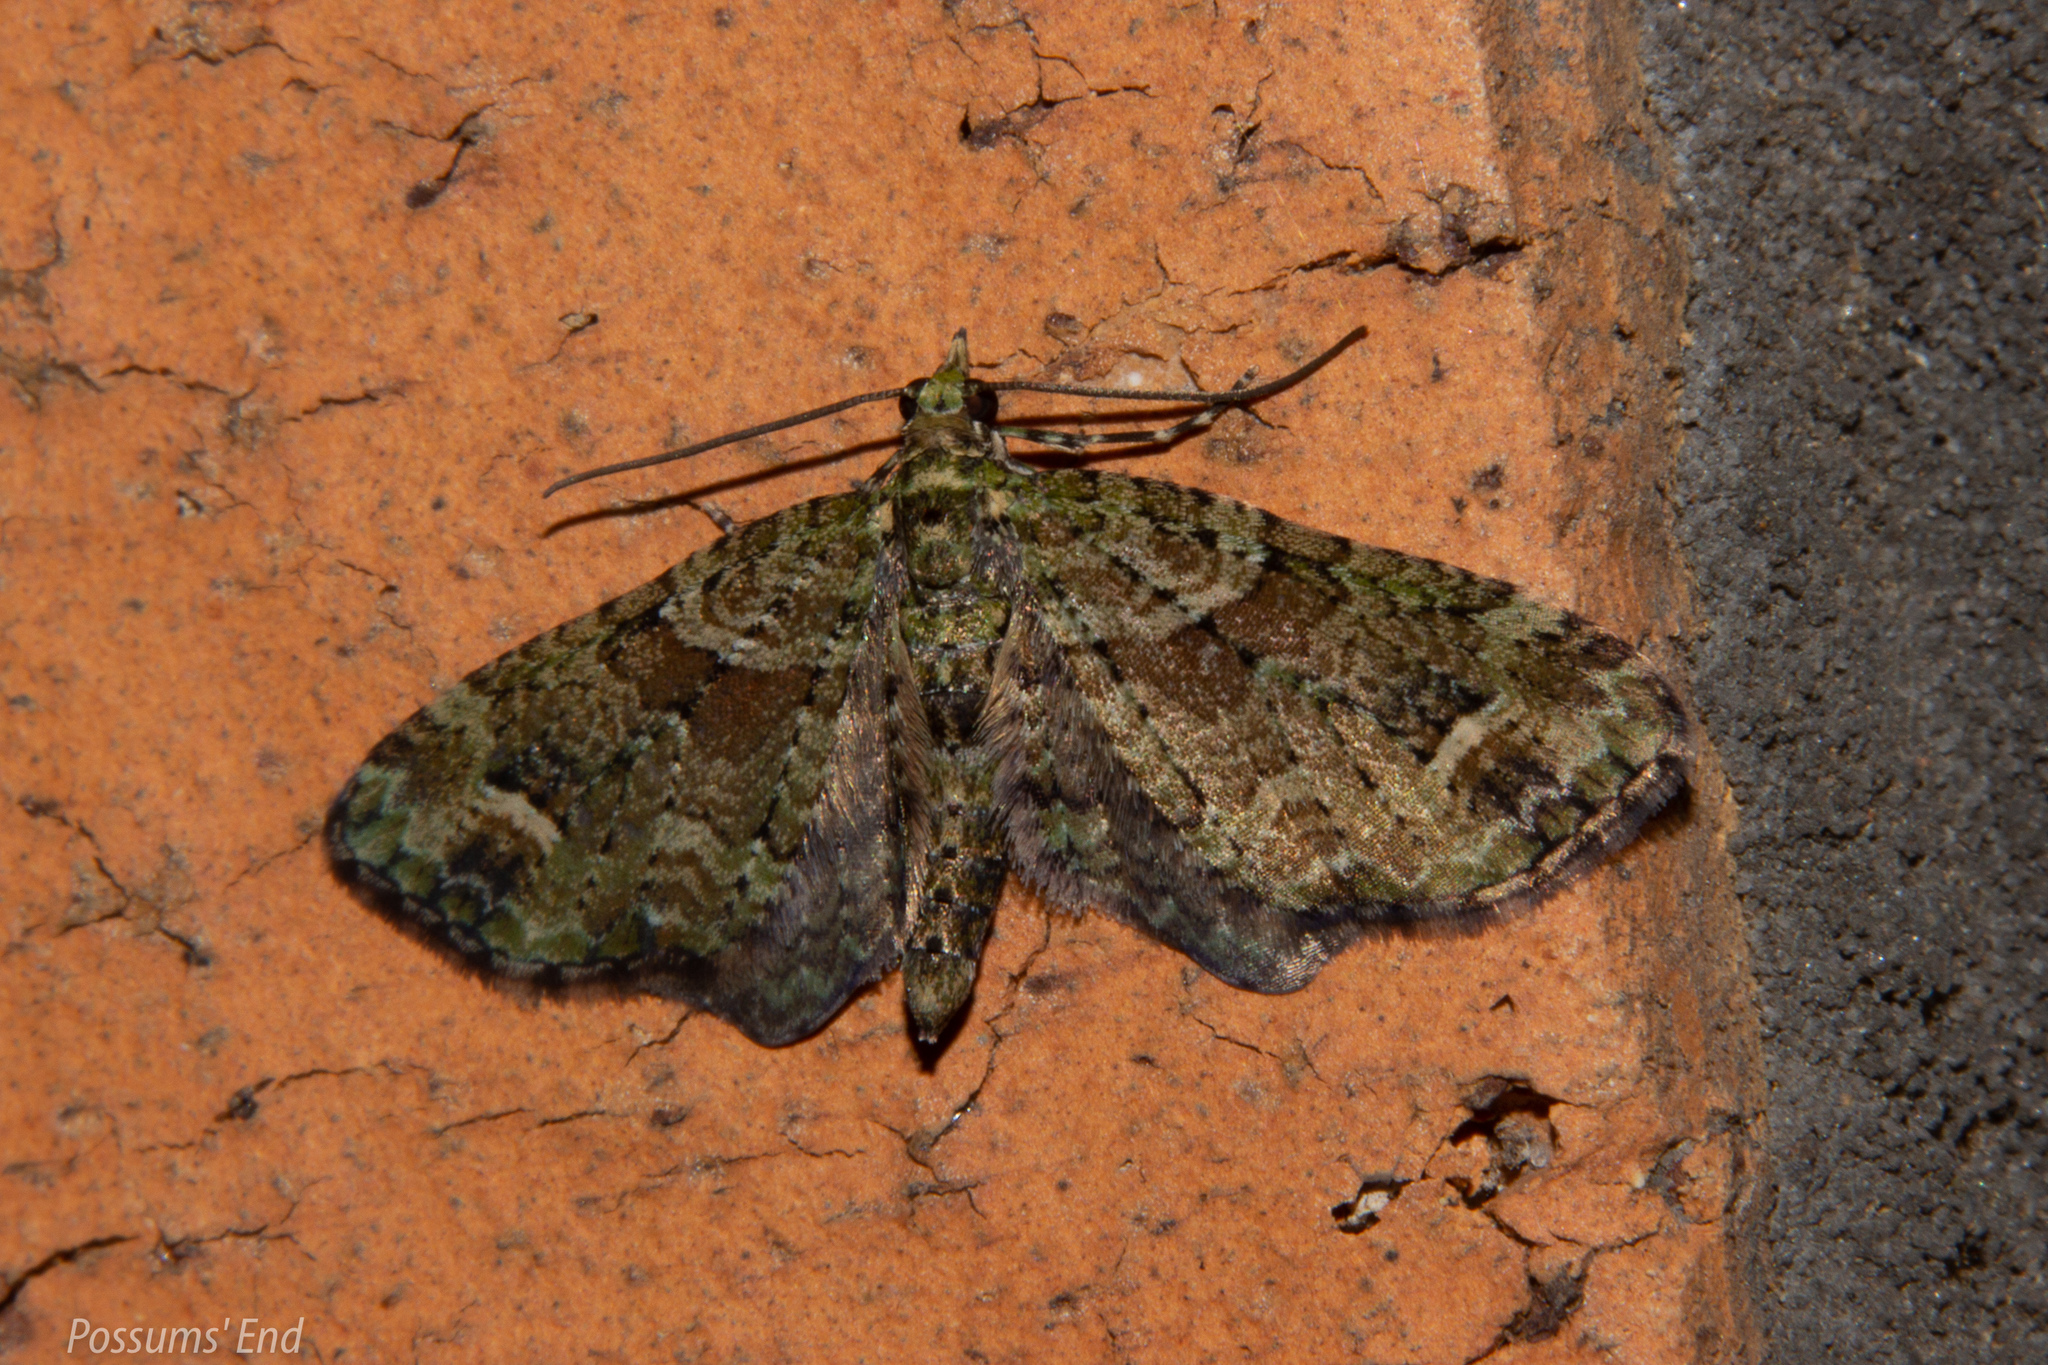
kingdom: Animalia
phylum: Arthropoda
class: Insecta
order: Lepidoptera
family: Geometridae
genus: Idaea
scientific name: Idaea mutanda
